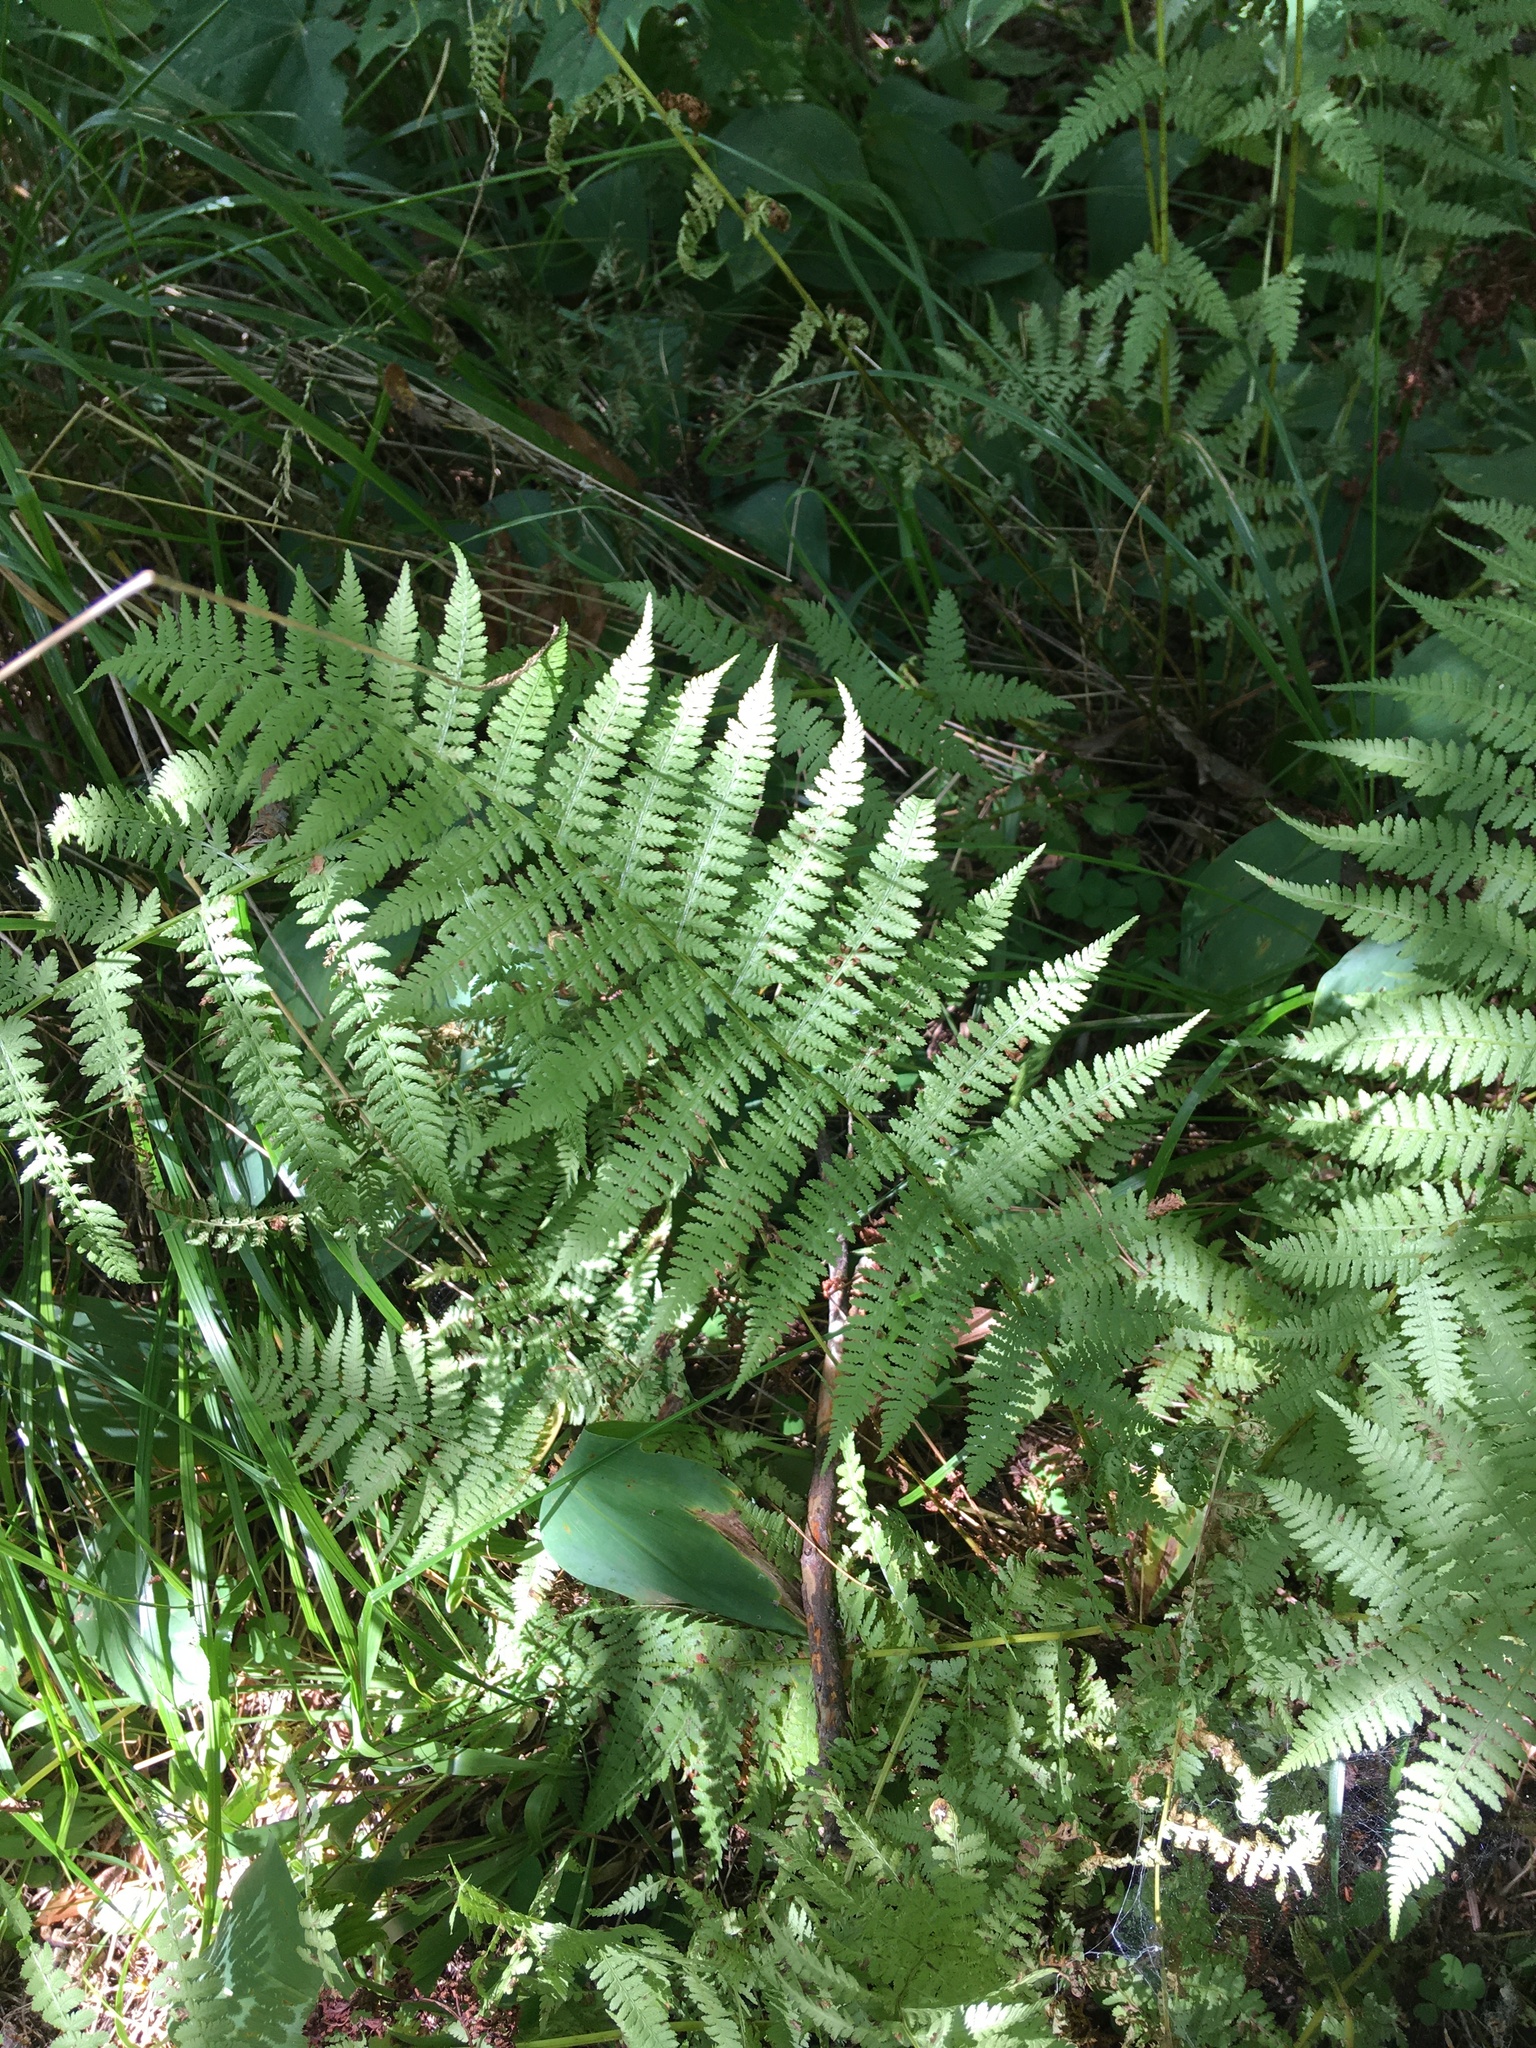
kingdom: Plantae
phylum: Tracheophyta
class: Polypodiopsida
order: Polypodiales
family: Athyriaceae
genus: Athyrium
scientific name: Athyrium filix-femina
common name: Lady fern
